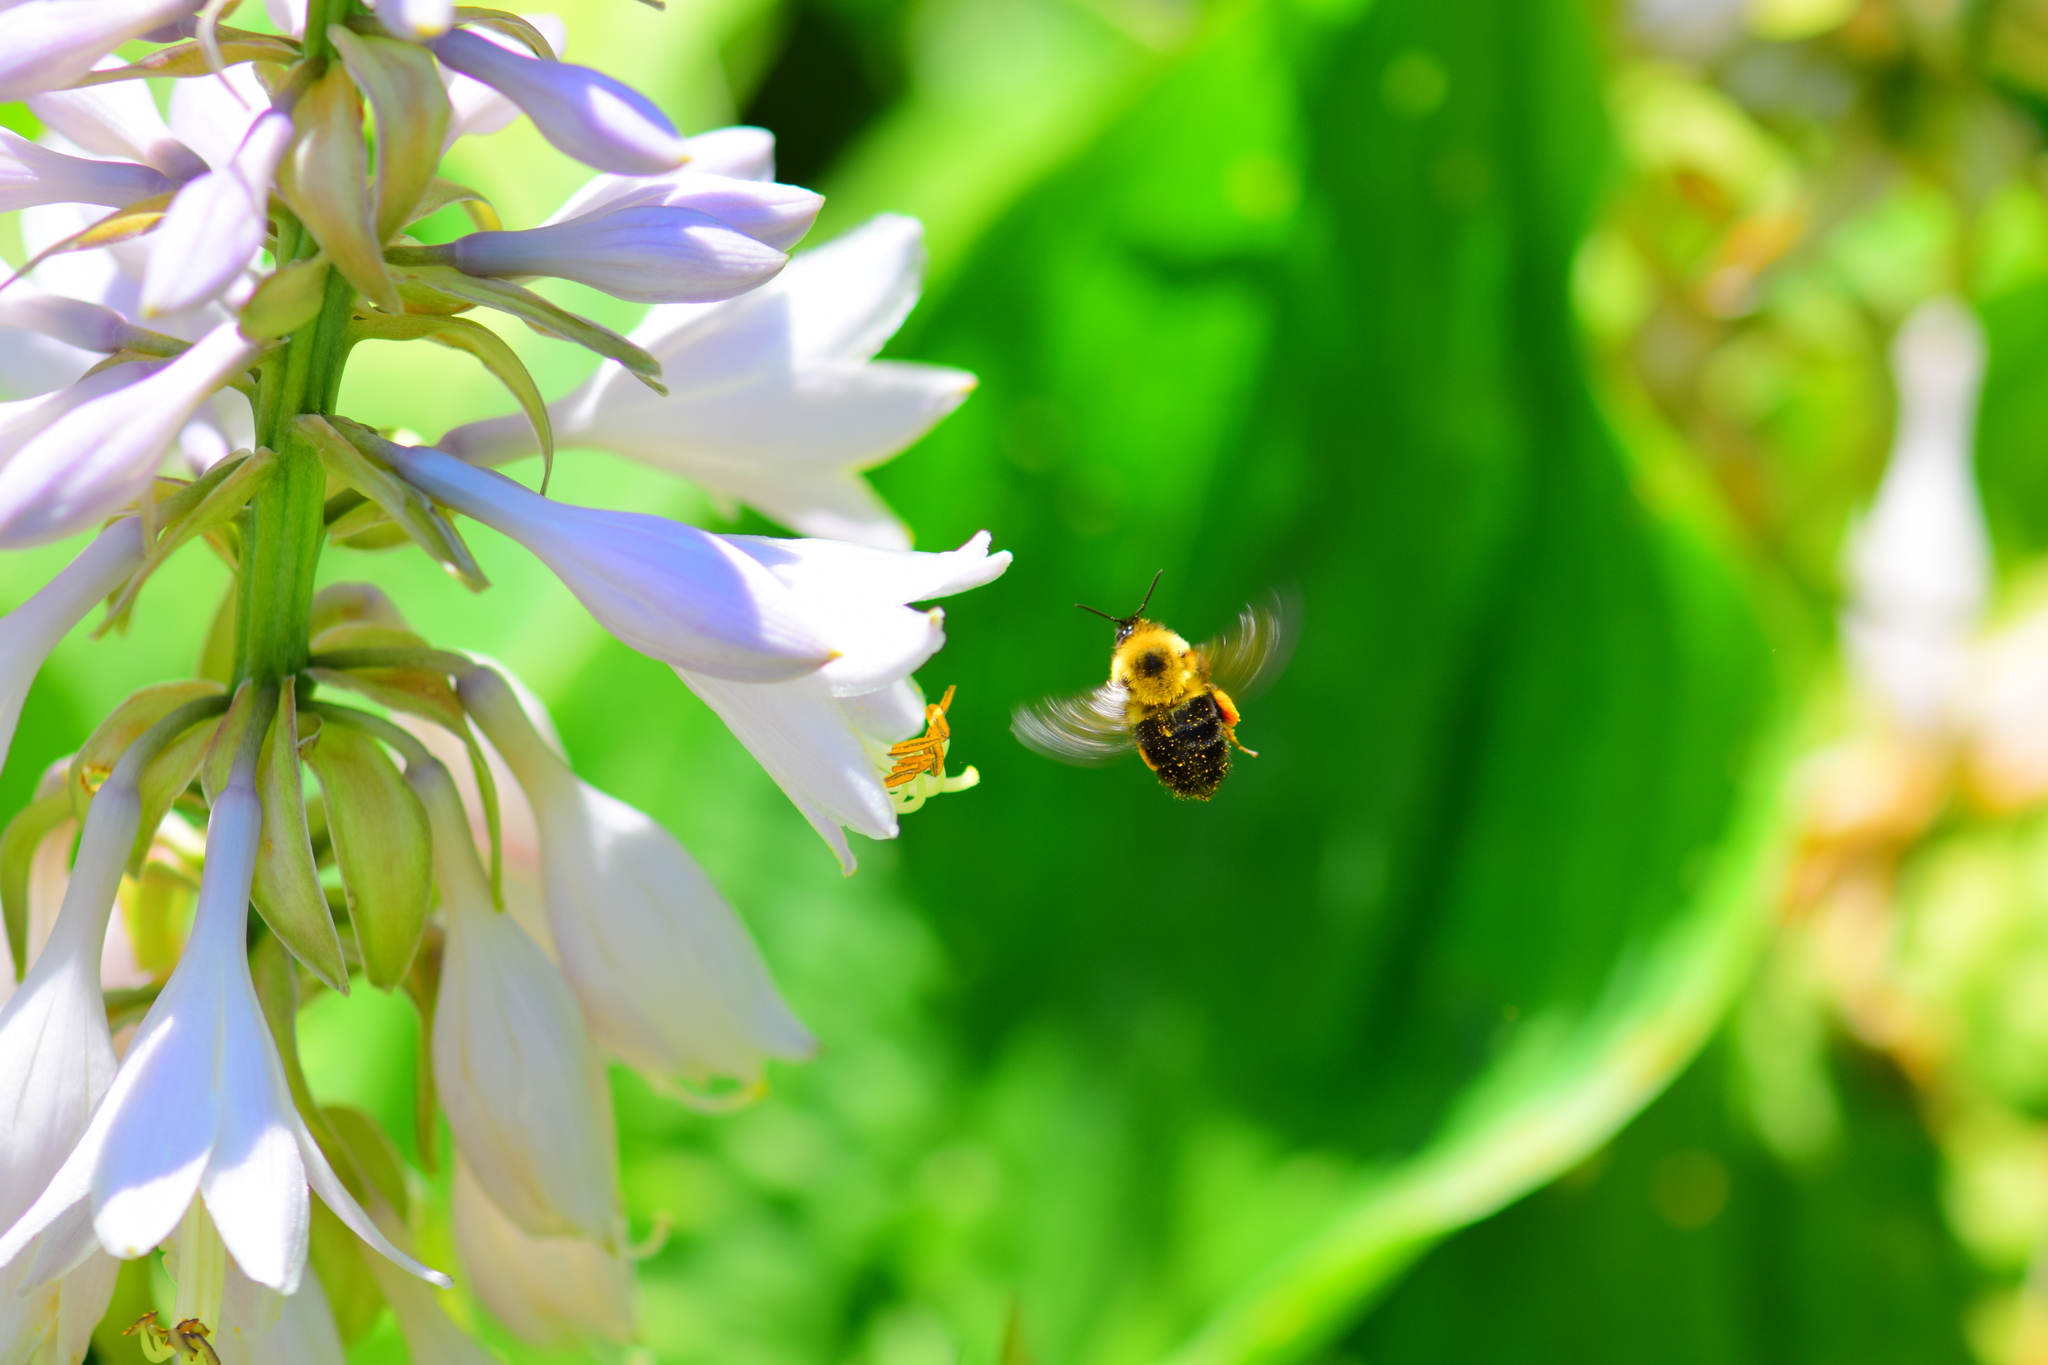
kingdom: Animalia
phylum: Arthropoda
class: Insecta
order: Hymenoptera
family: Apidae
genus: Bombus
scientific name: Bombus bimaculatus
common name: Two-spotted bumble bee
